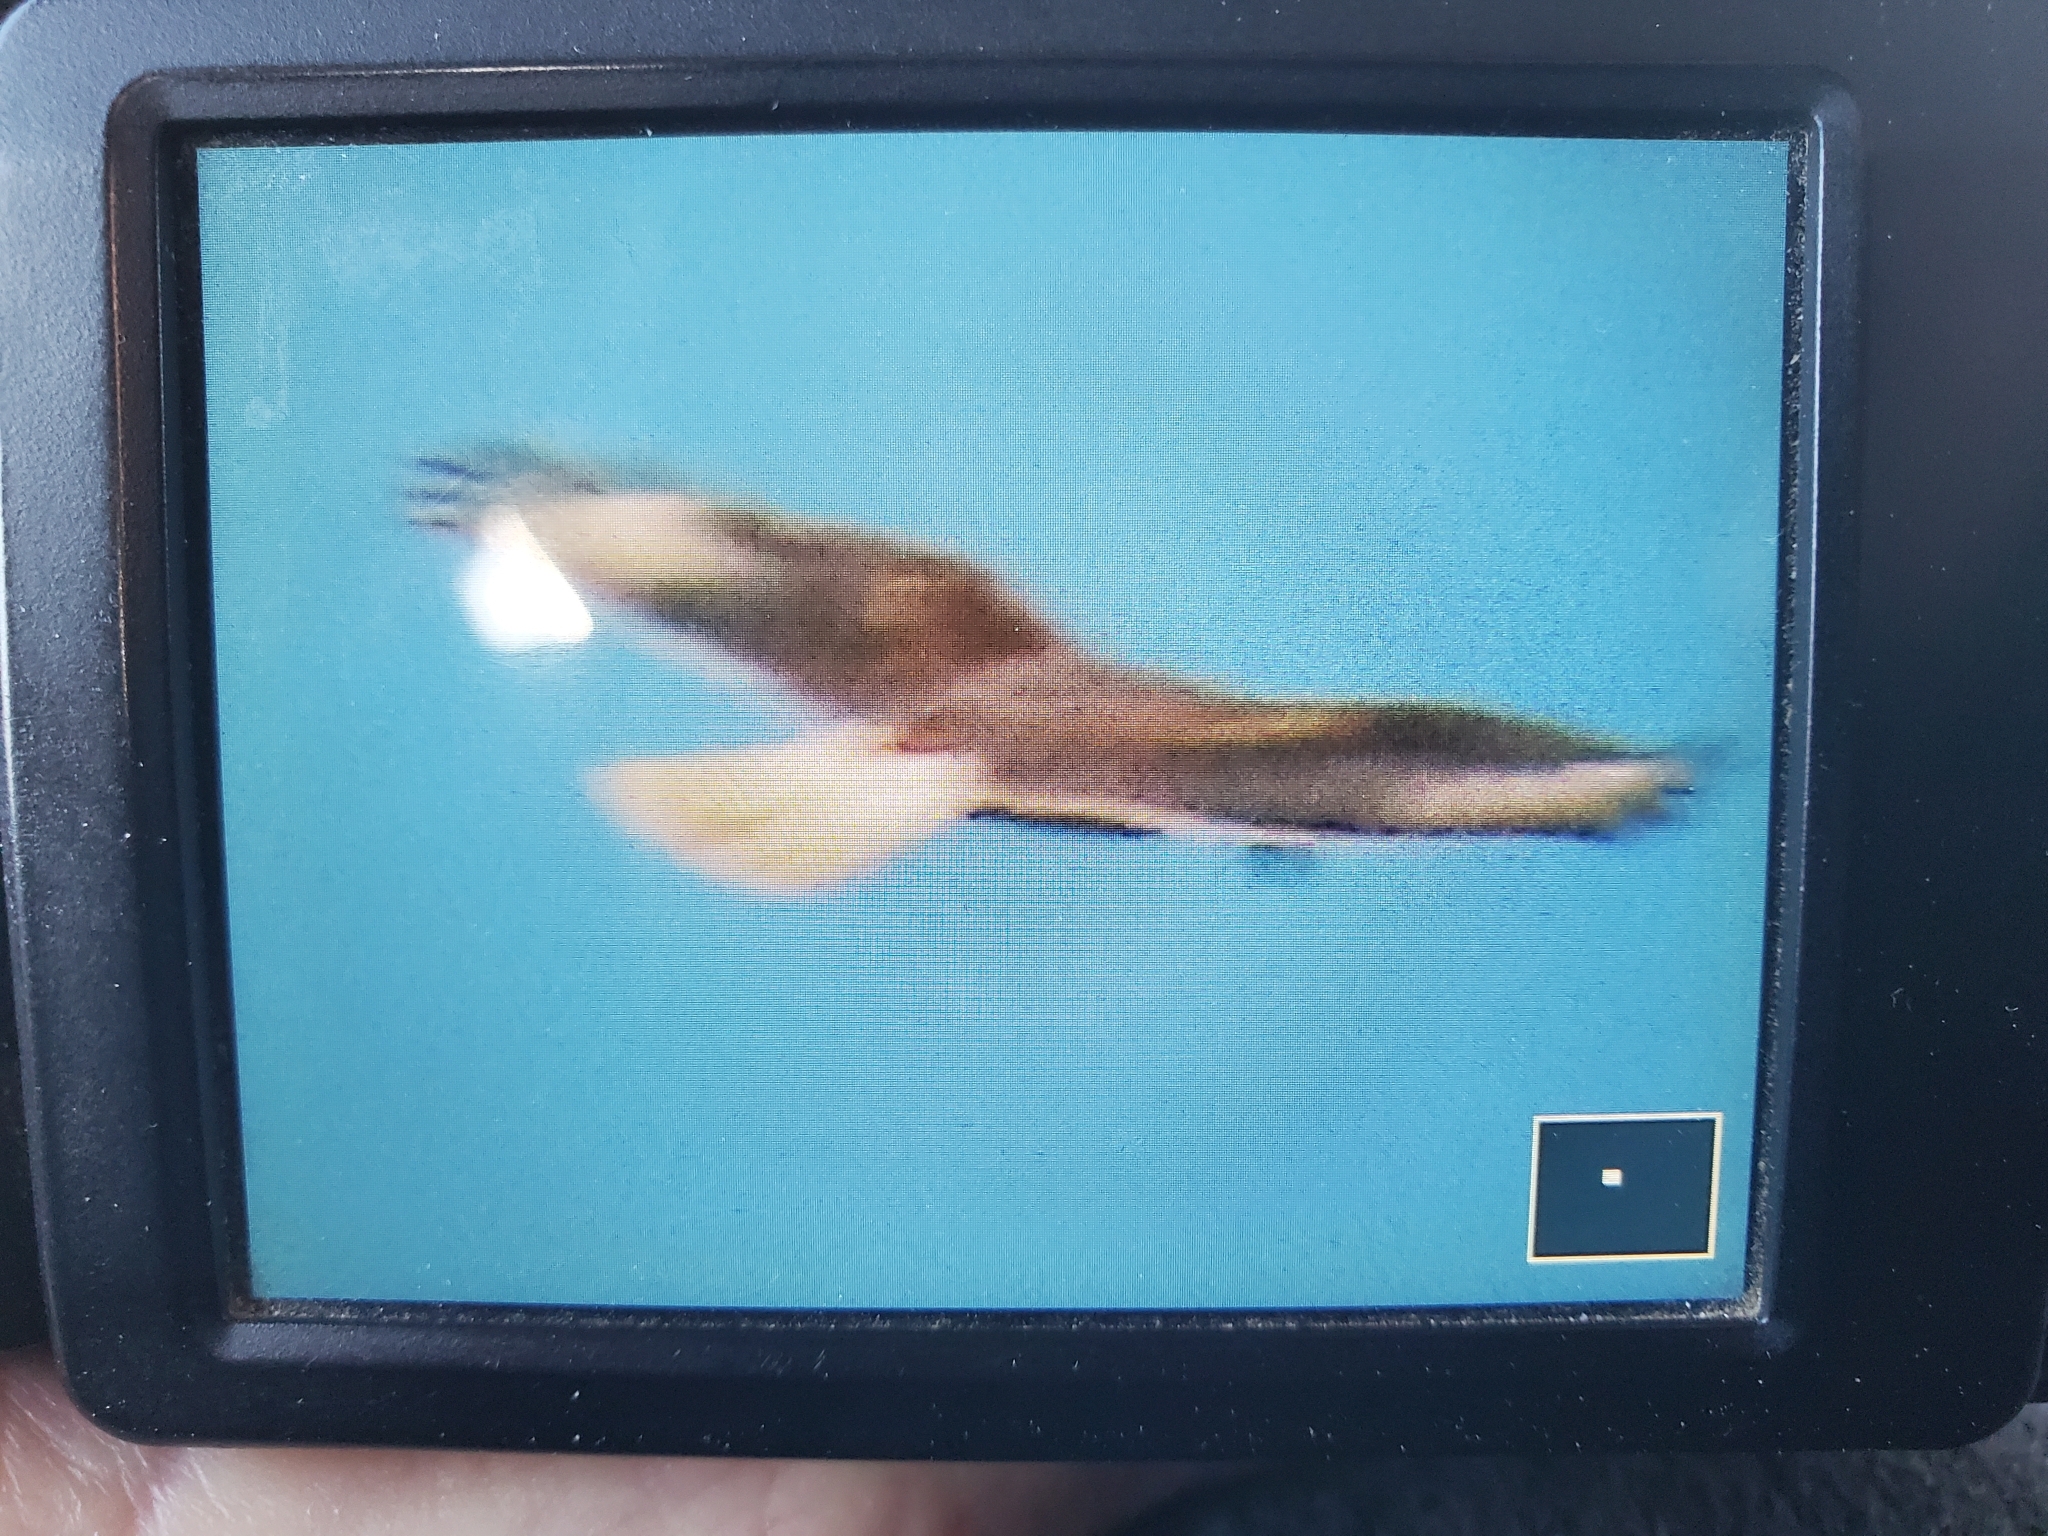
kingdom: Animalia
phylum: Chordata
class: Aves
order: Accipitriformes
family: Accipitridae
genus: Buteo
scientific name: Buteo regalis
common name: Ferruginous hawk
